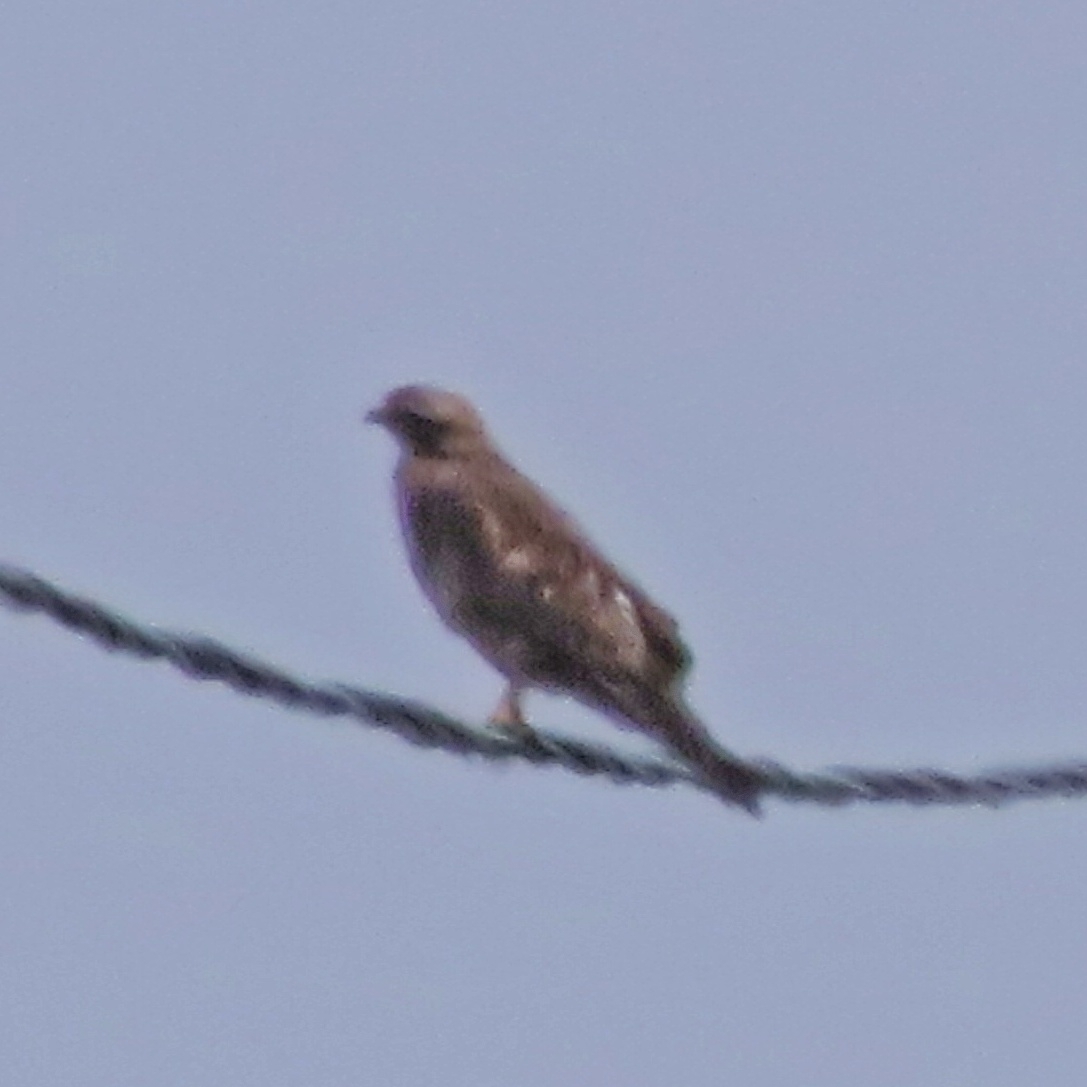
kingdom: Animalia
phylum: Chordata
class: Aves
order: Accipitriformes
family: Accipitridae
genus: Buteo
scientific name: Buteo buteo
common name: Common buzzard
